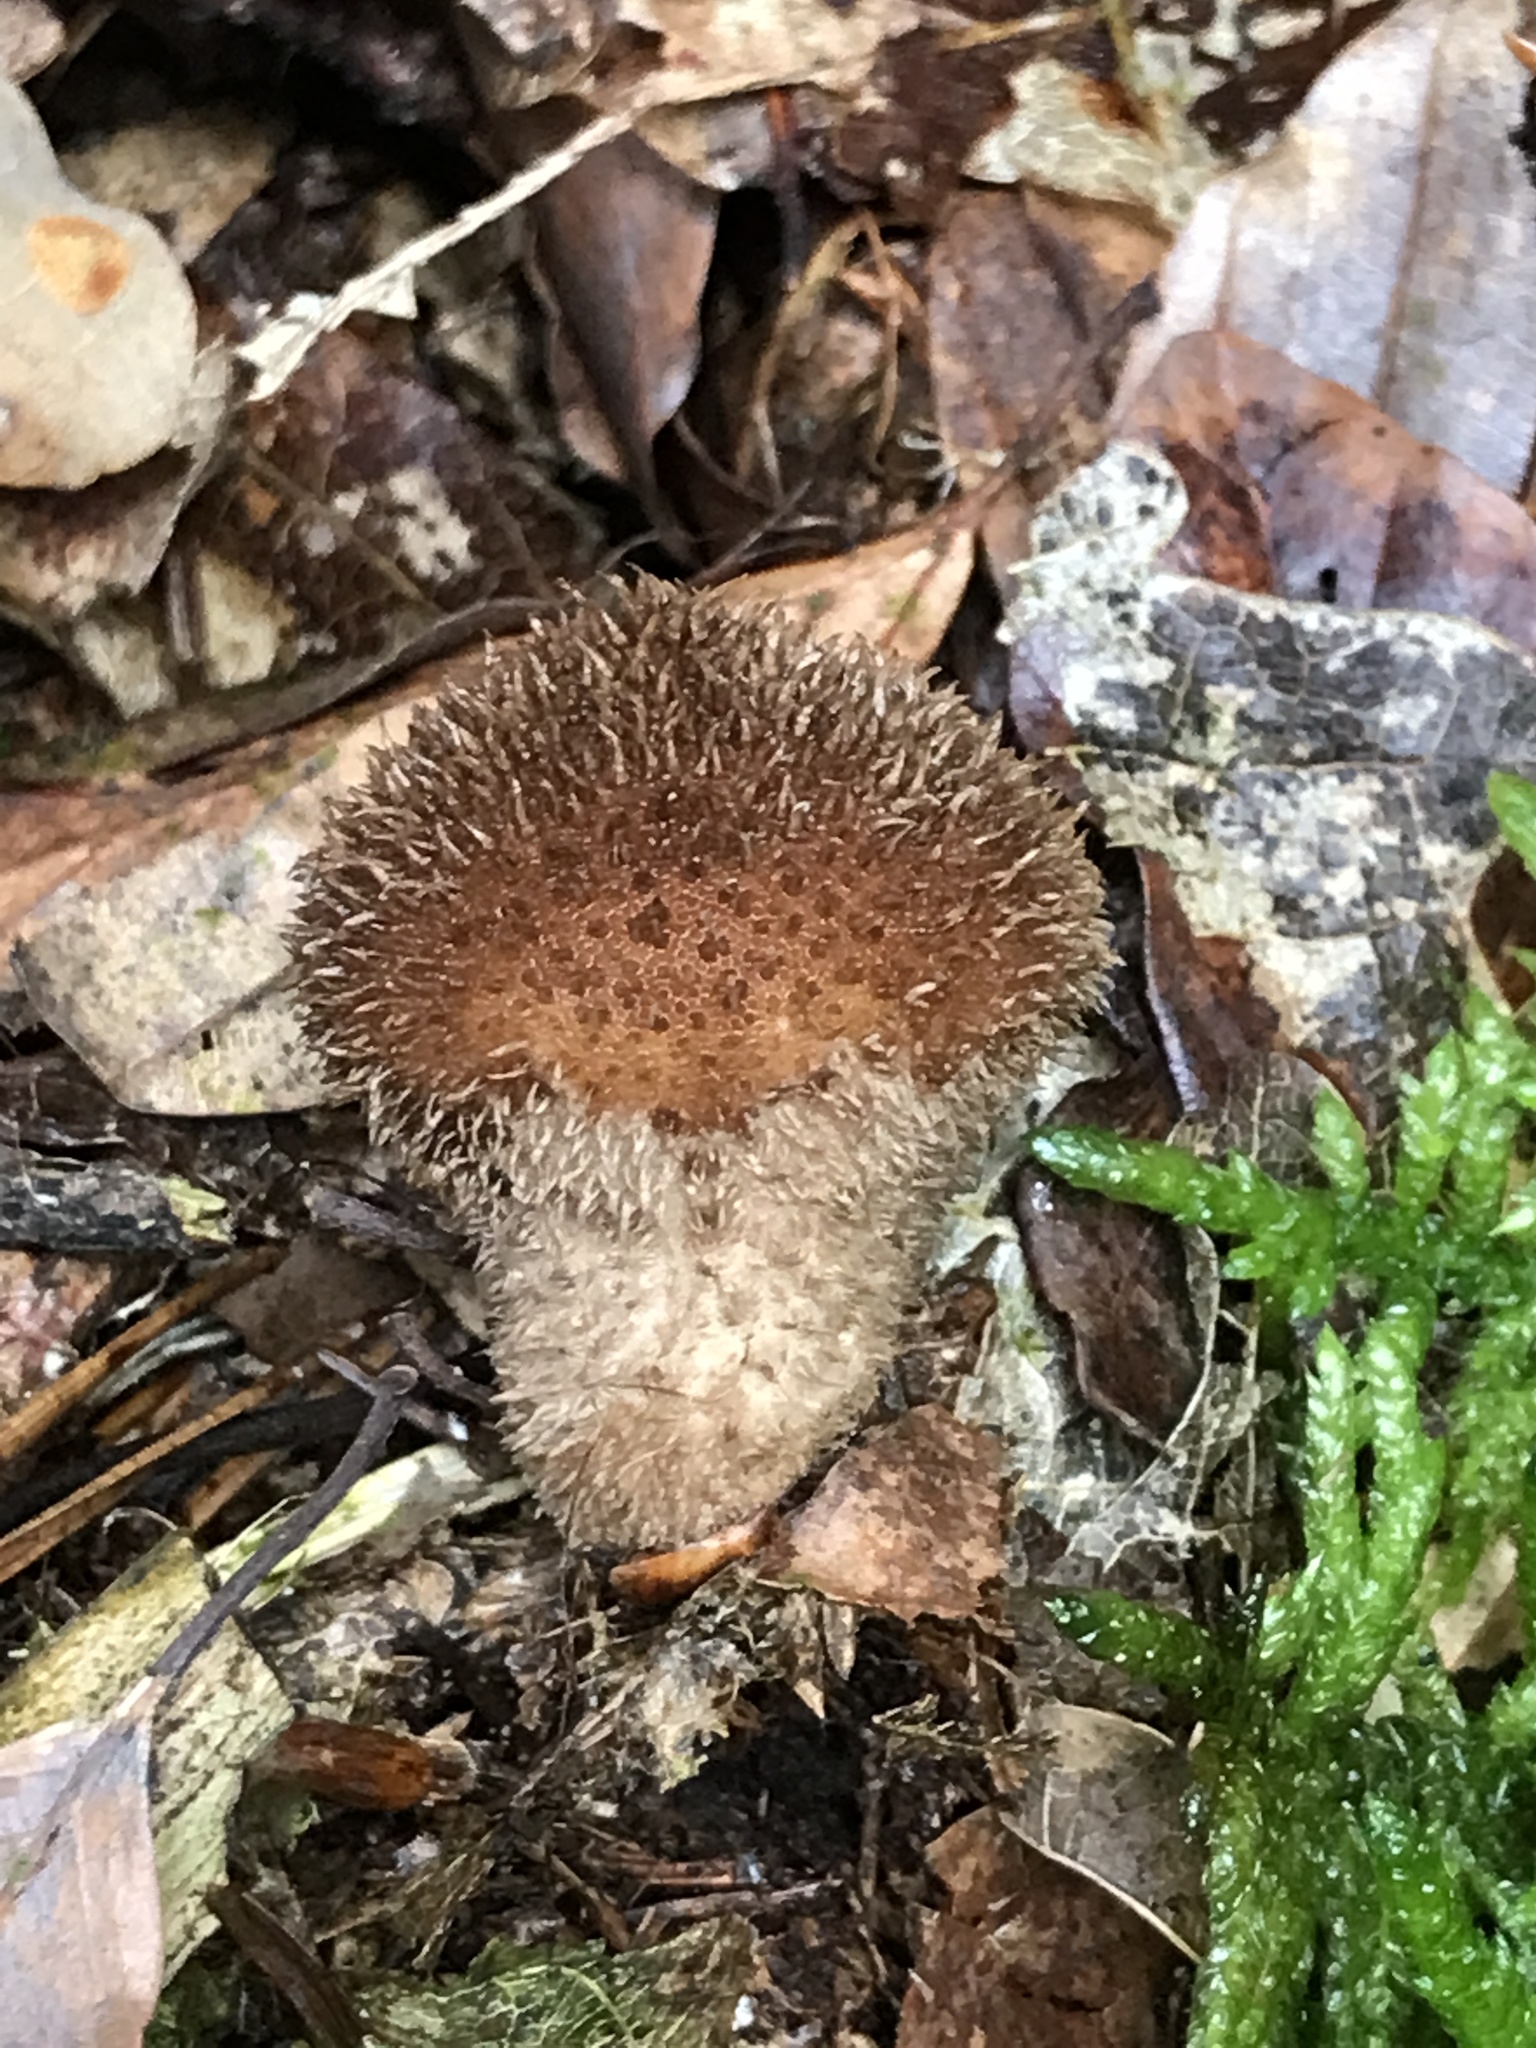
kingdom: Fungi
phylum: Basidiomycota
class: Agaricomycetes
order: Agaricales
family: Lycoperdaceae
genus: Lycoperdon
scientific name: Lycoperdon echinatum
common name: Hedgehog puffball
